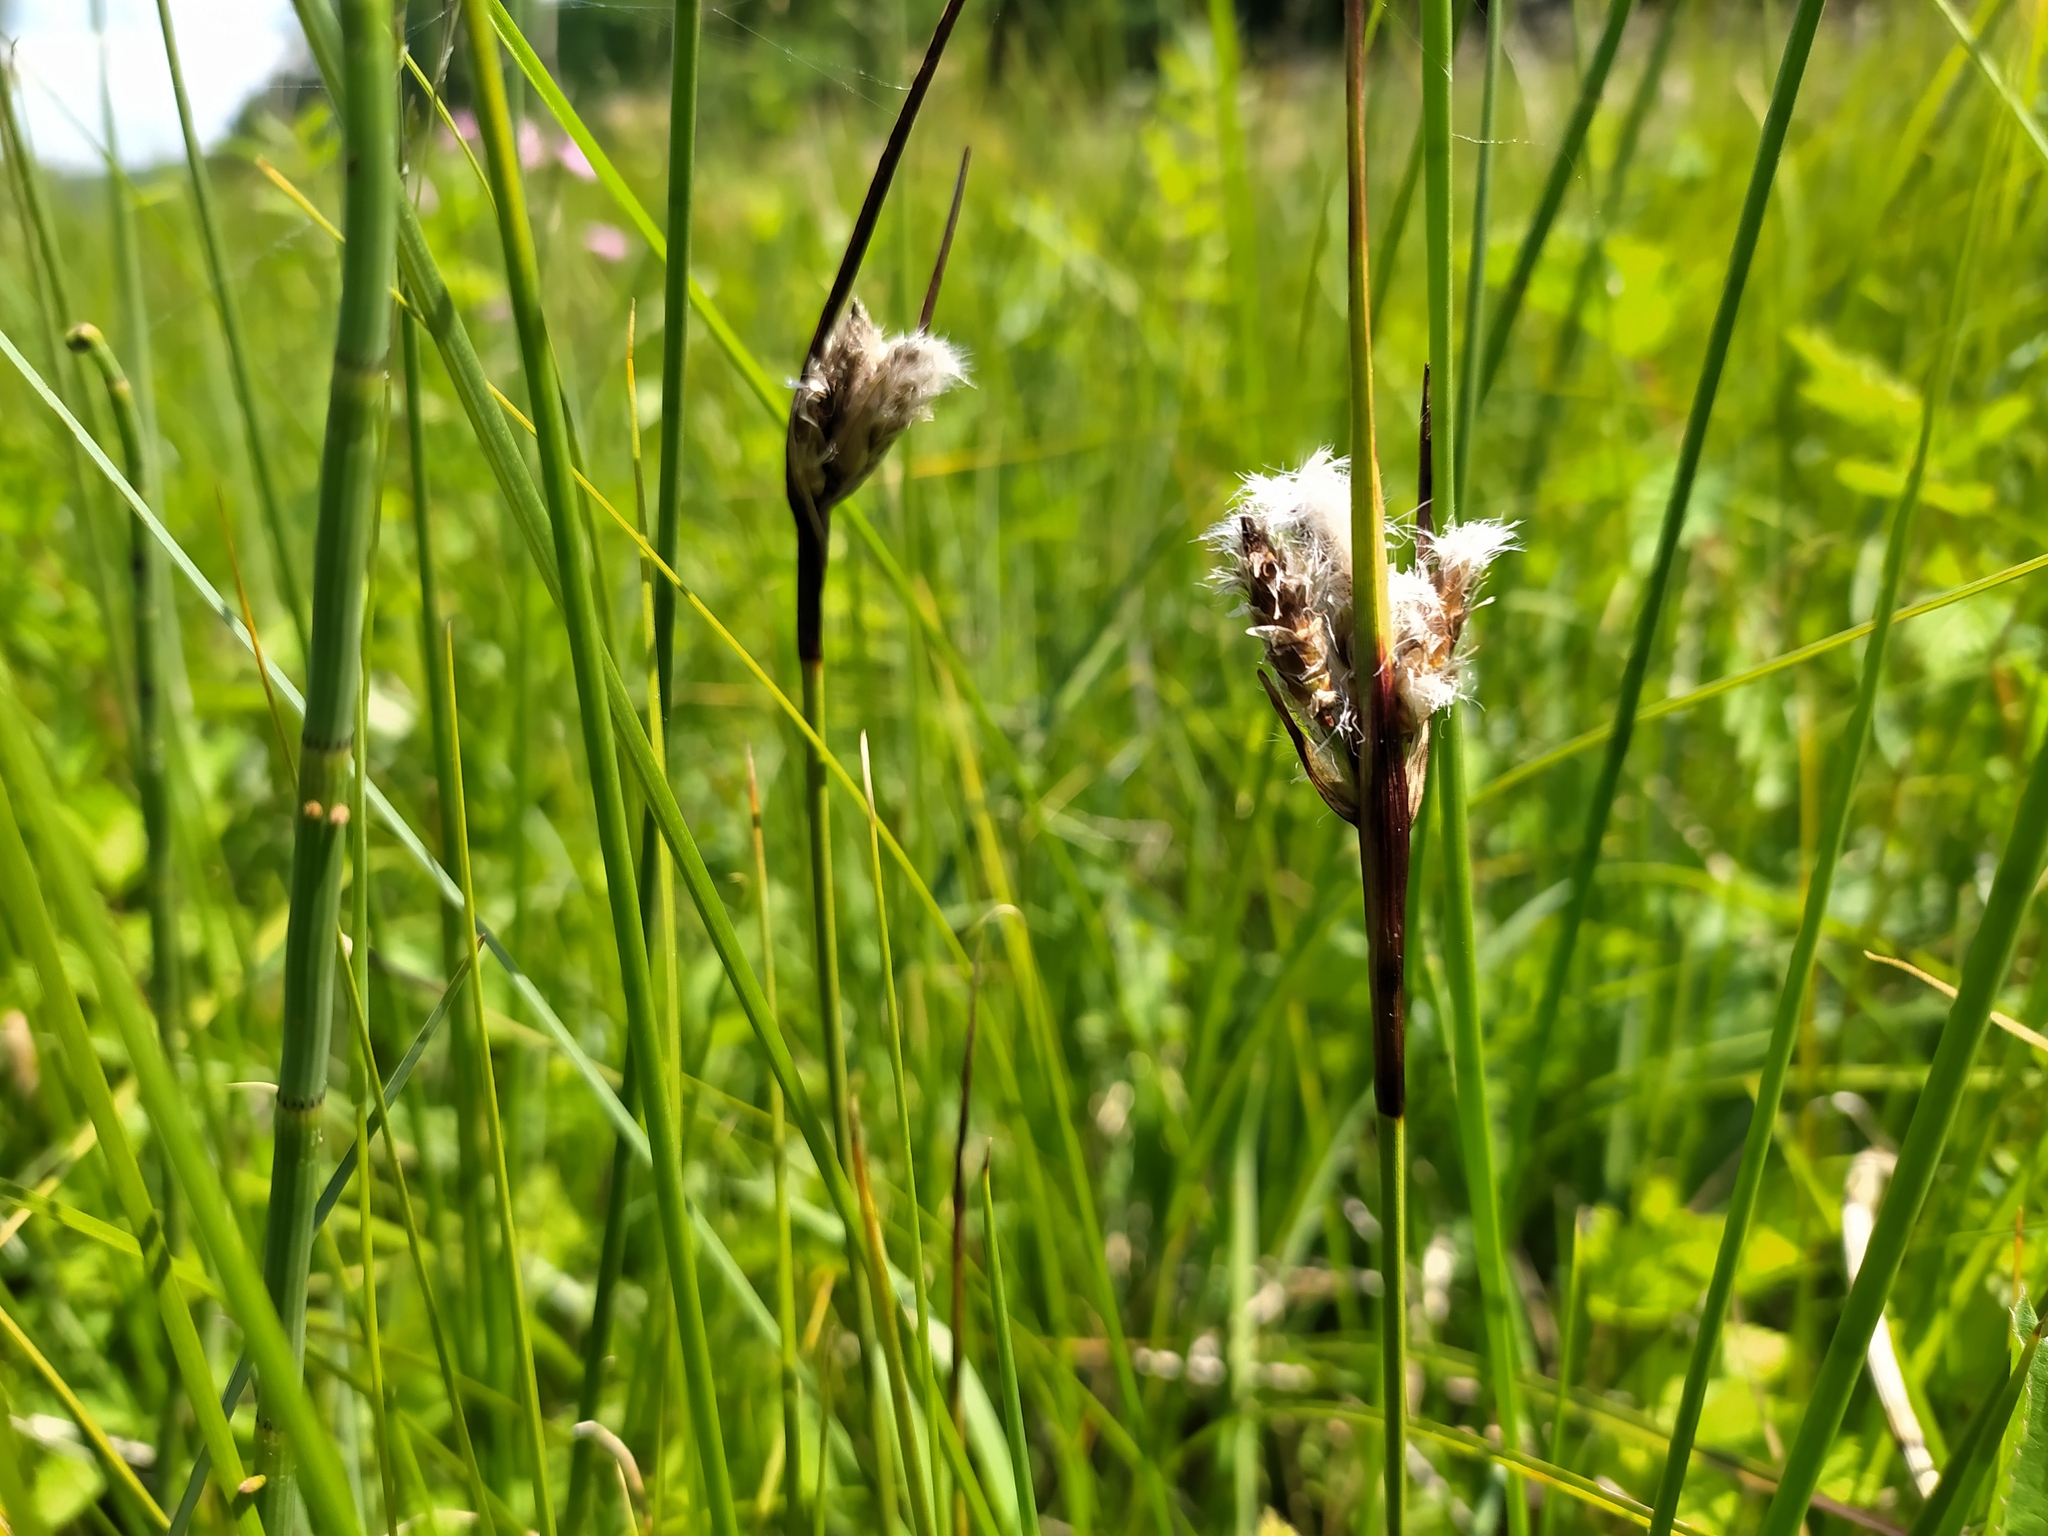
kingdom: Plantae
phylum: Tracheophyta
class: Liliopsida
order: Poales
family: Cyperaceae
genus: Eriophorum
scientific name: Eriophorum angustifolium
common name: Common cottongrass
